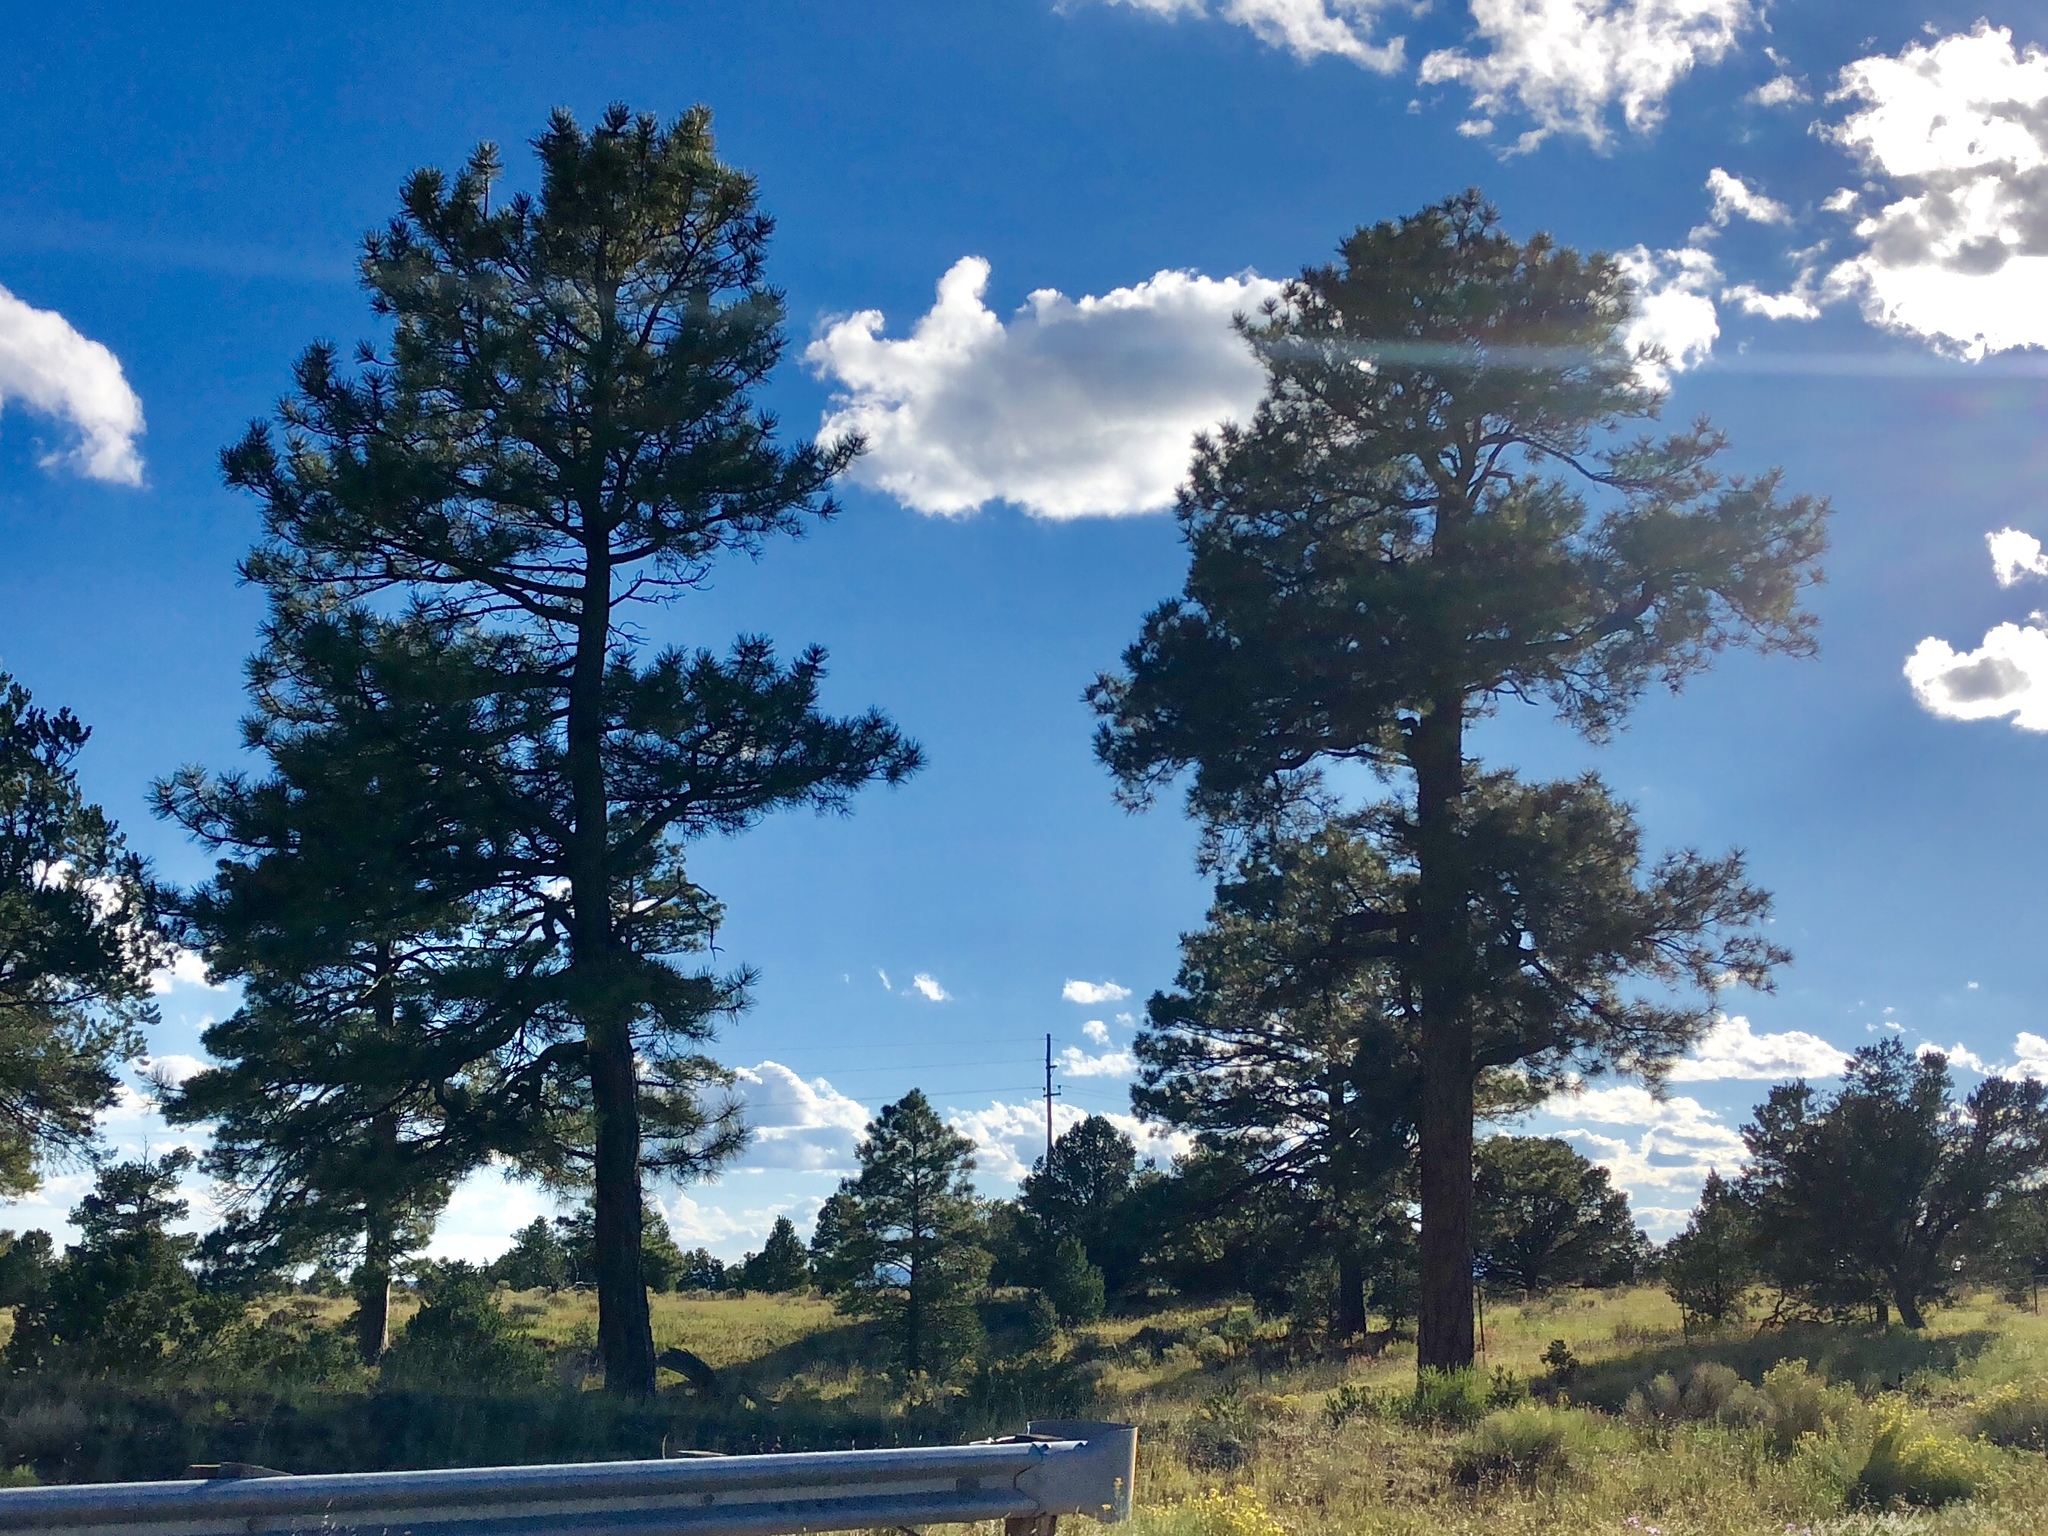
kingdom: Plantae
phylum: Tracheophyta
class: Pinopsida
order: Pinales
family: Pinaceae
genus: Pinus
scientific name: Pinus ponderosa
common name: Western yellow-pine
